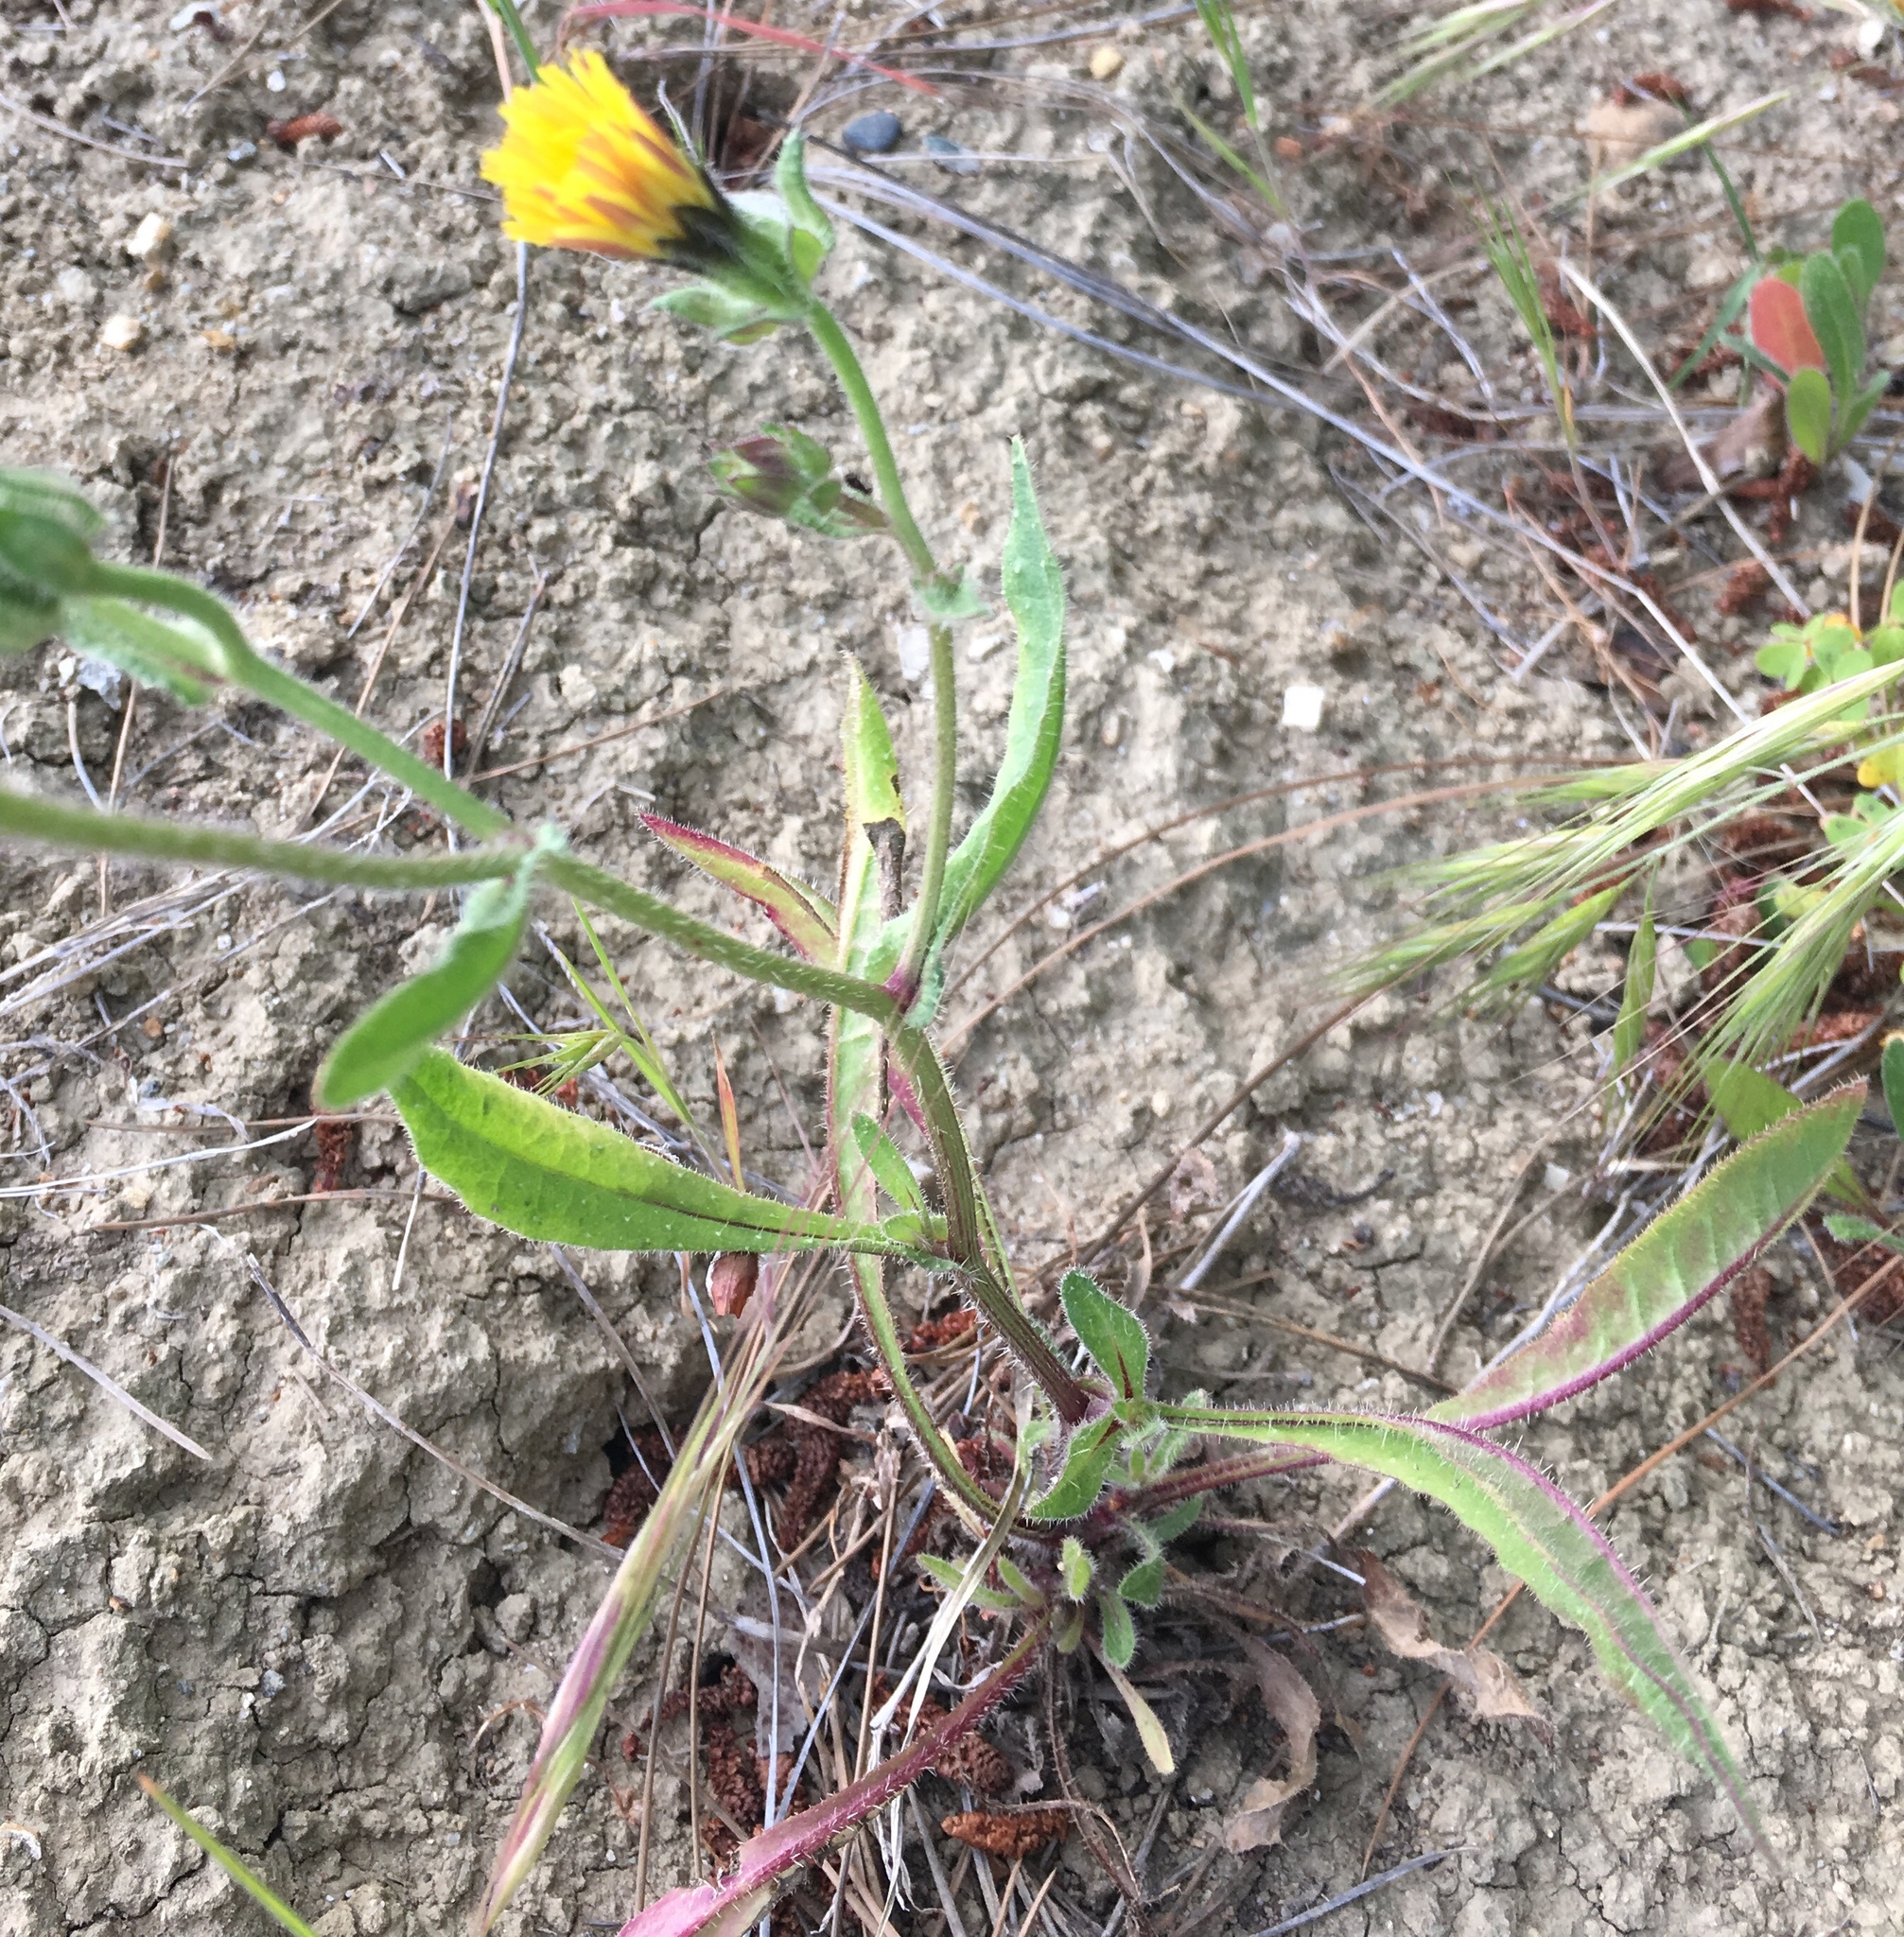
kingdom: Plantae
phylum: Tracheophyta
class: Magnoliopsida
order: Asterales
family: Asteraceae
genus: Helminthotheca
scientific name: Helminthotheca echioides
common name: Ox-tongue
